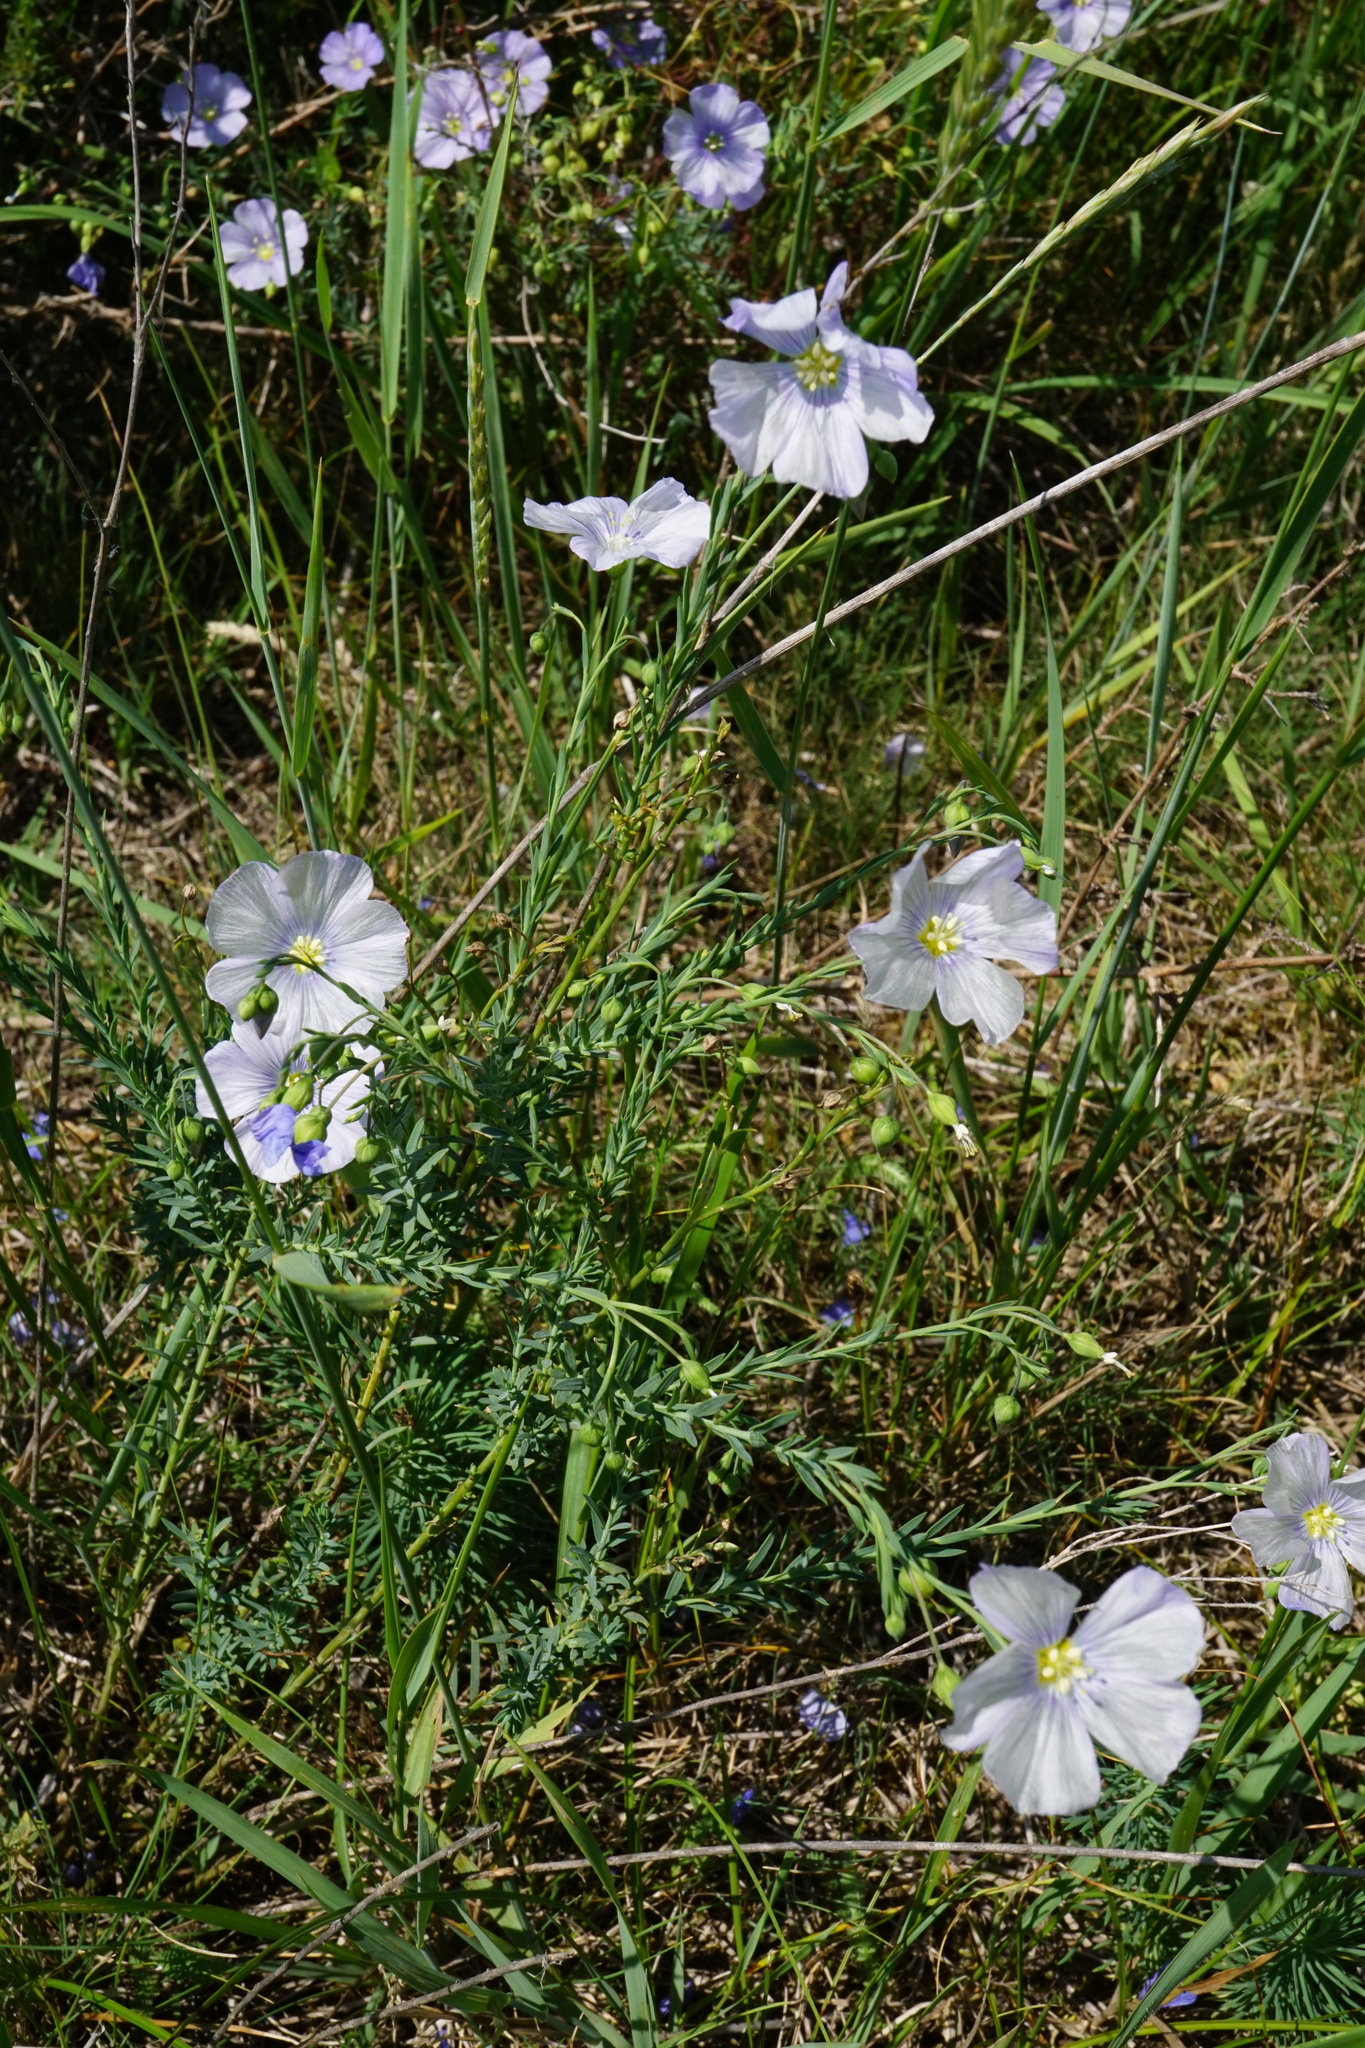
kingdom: Plantae
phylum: Tracheophyta
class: Magnoliopsida
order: Malpighiales
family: Linaceae
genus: Linum
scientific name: Linum austriacum
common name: Austrian flax
